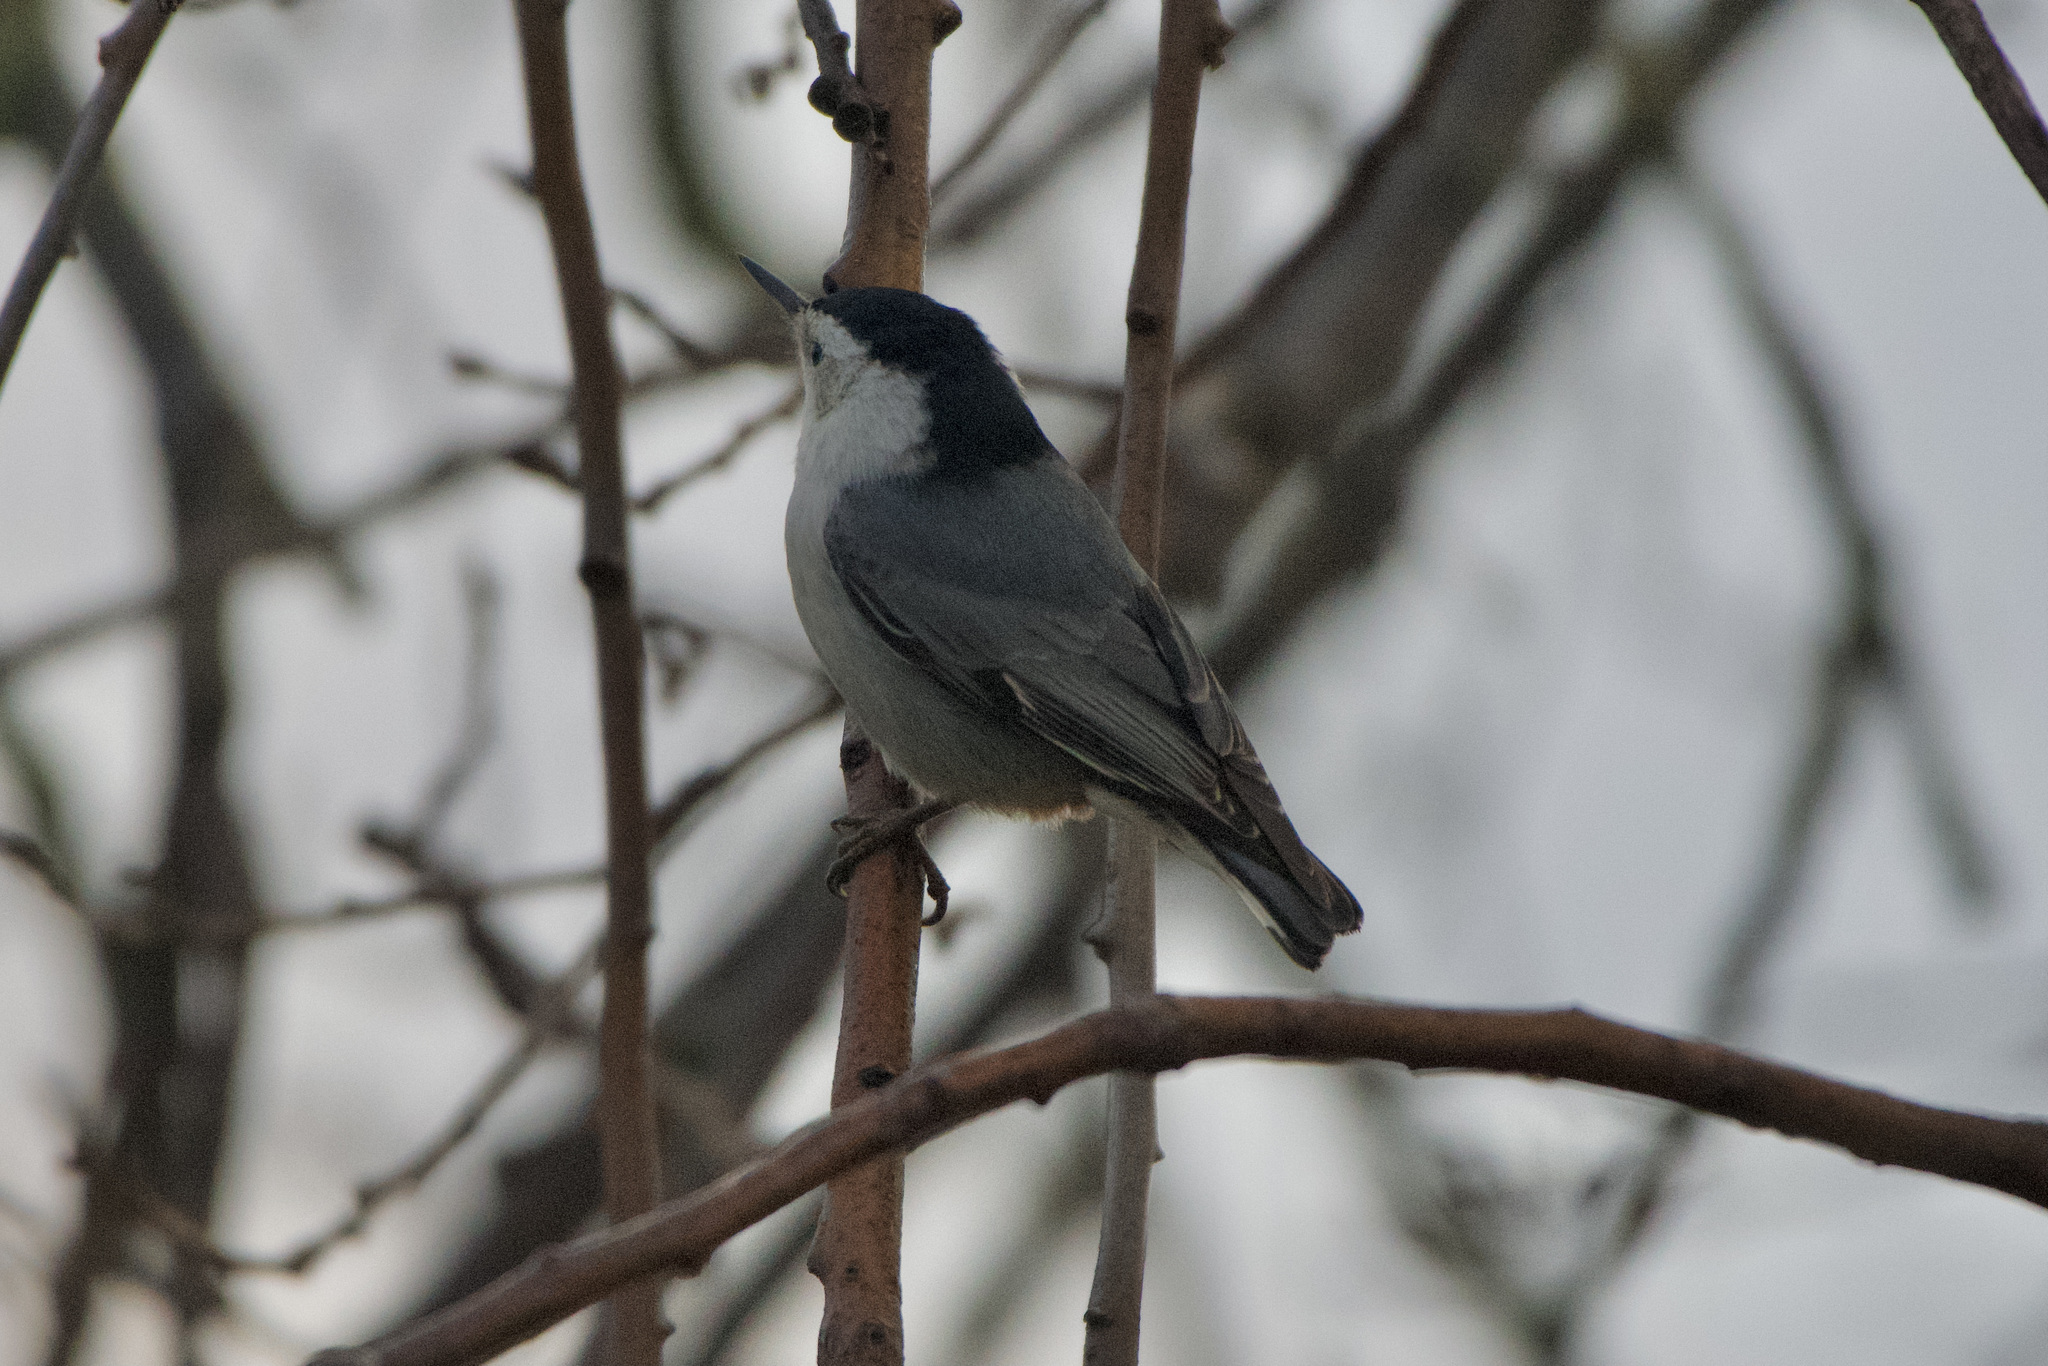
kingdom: Animalia
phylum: Chordata
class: Aves
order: Passeriformes
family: Sittidae
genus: Sitta
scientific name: Sitta carolinensis
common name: White-breasted nuthatch
